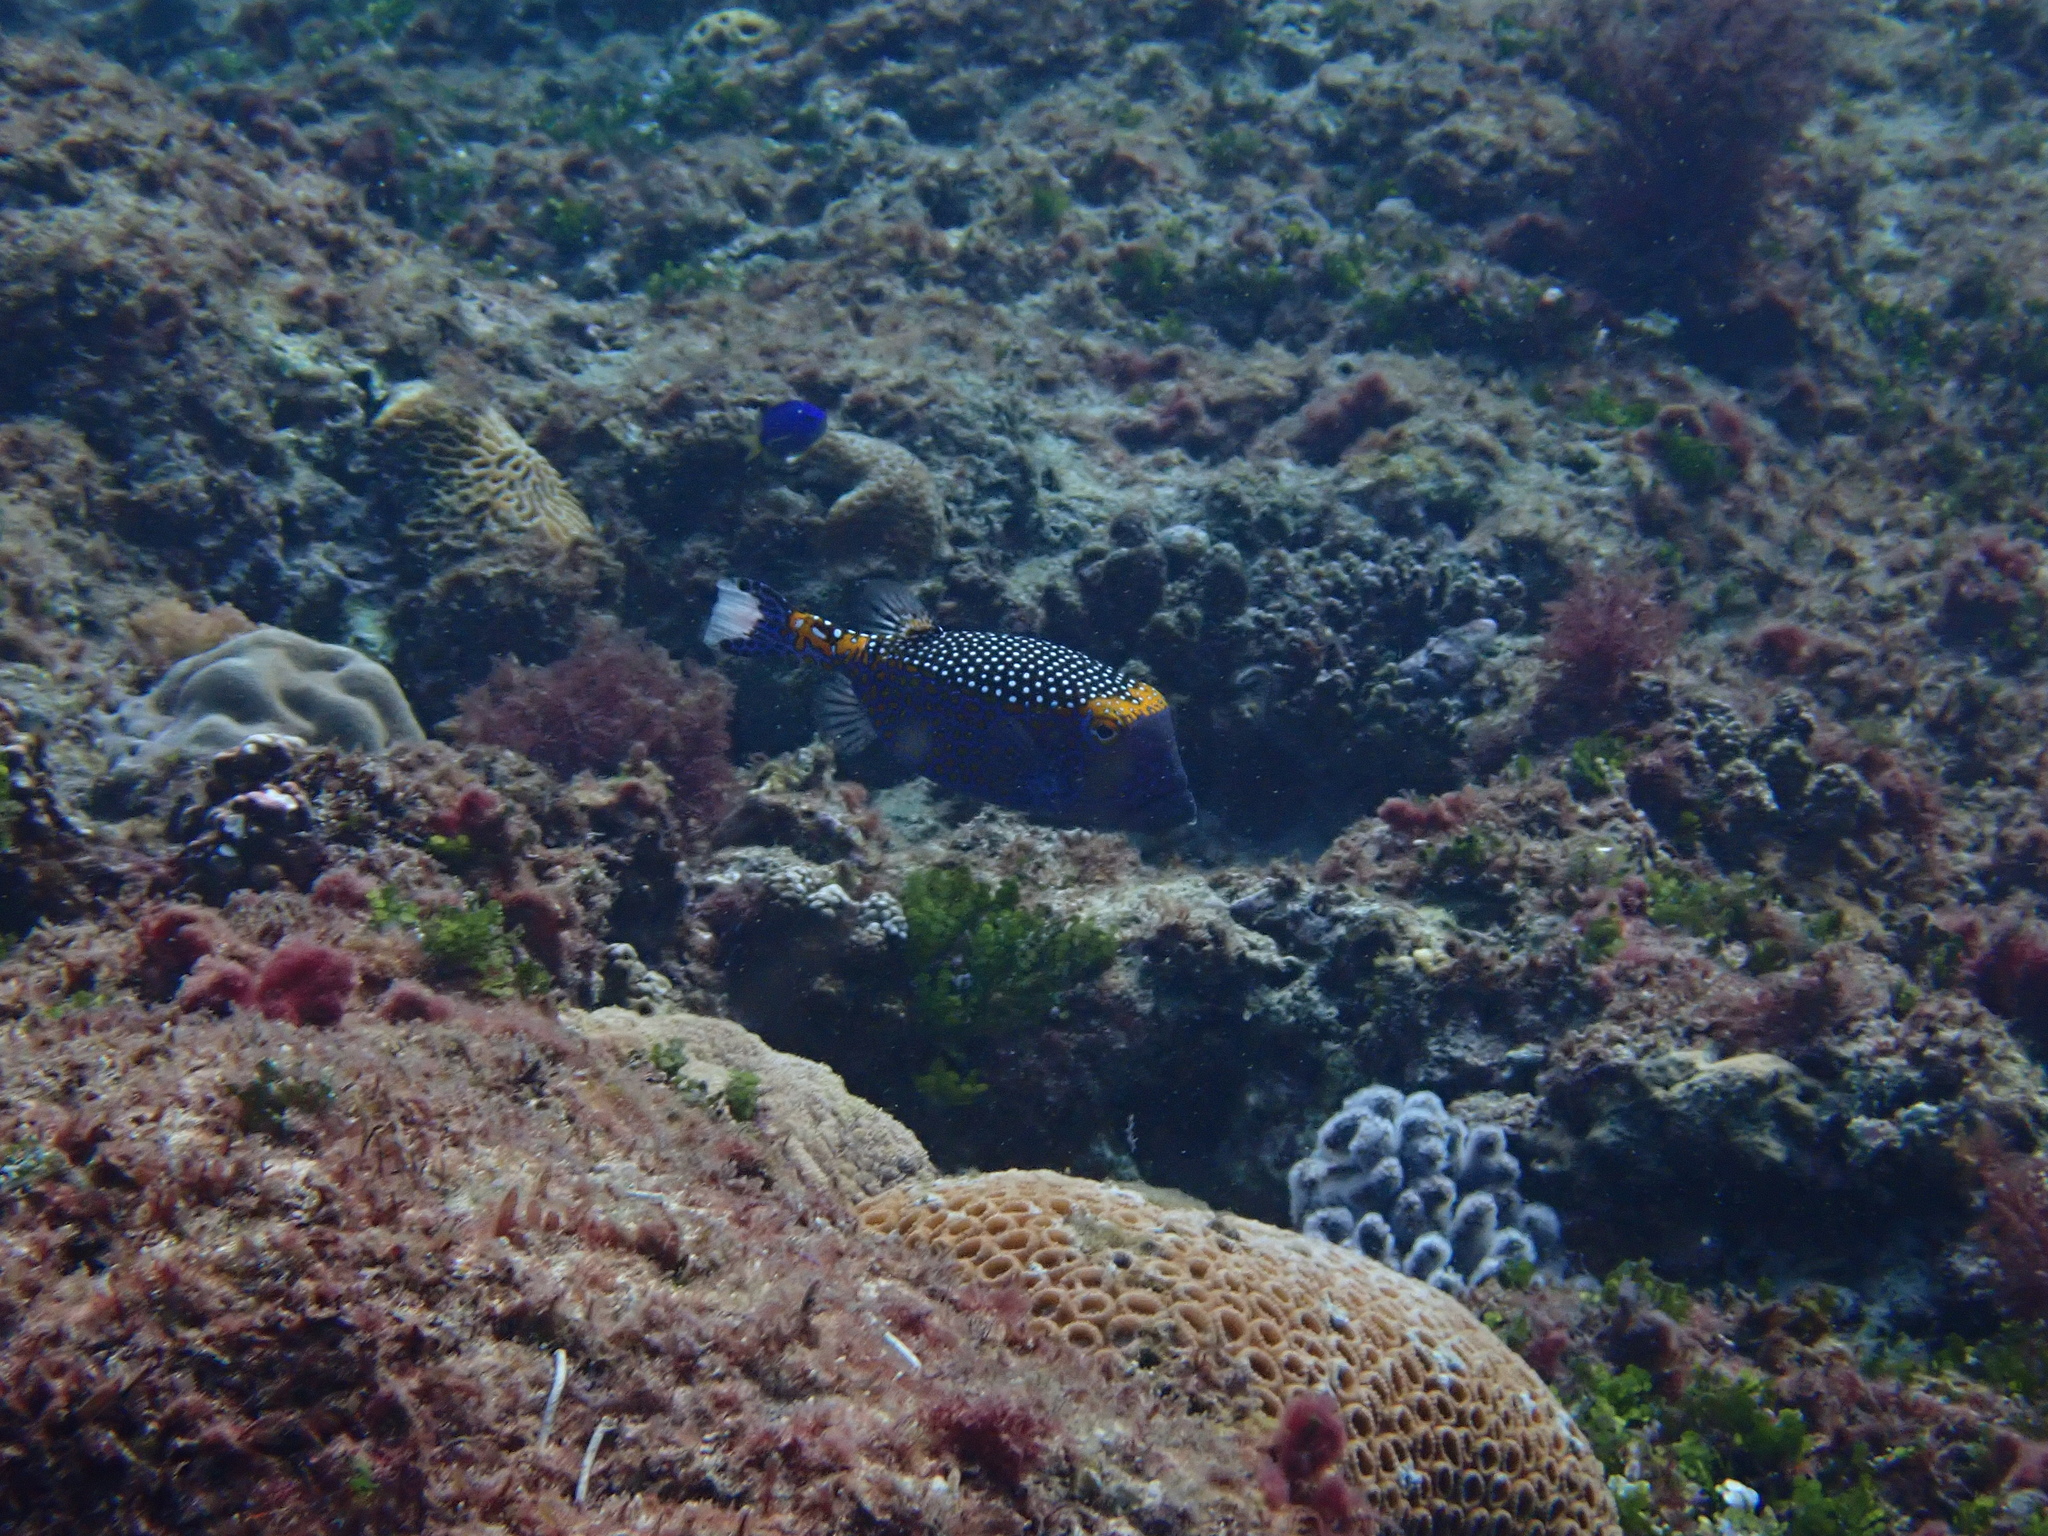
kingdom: Animalia
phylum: Chordata
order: Tetraodontiformes
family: Ostraciidae
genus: Ostracion
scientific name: Ostracion meleagris
